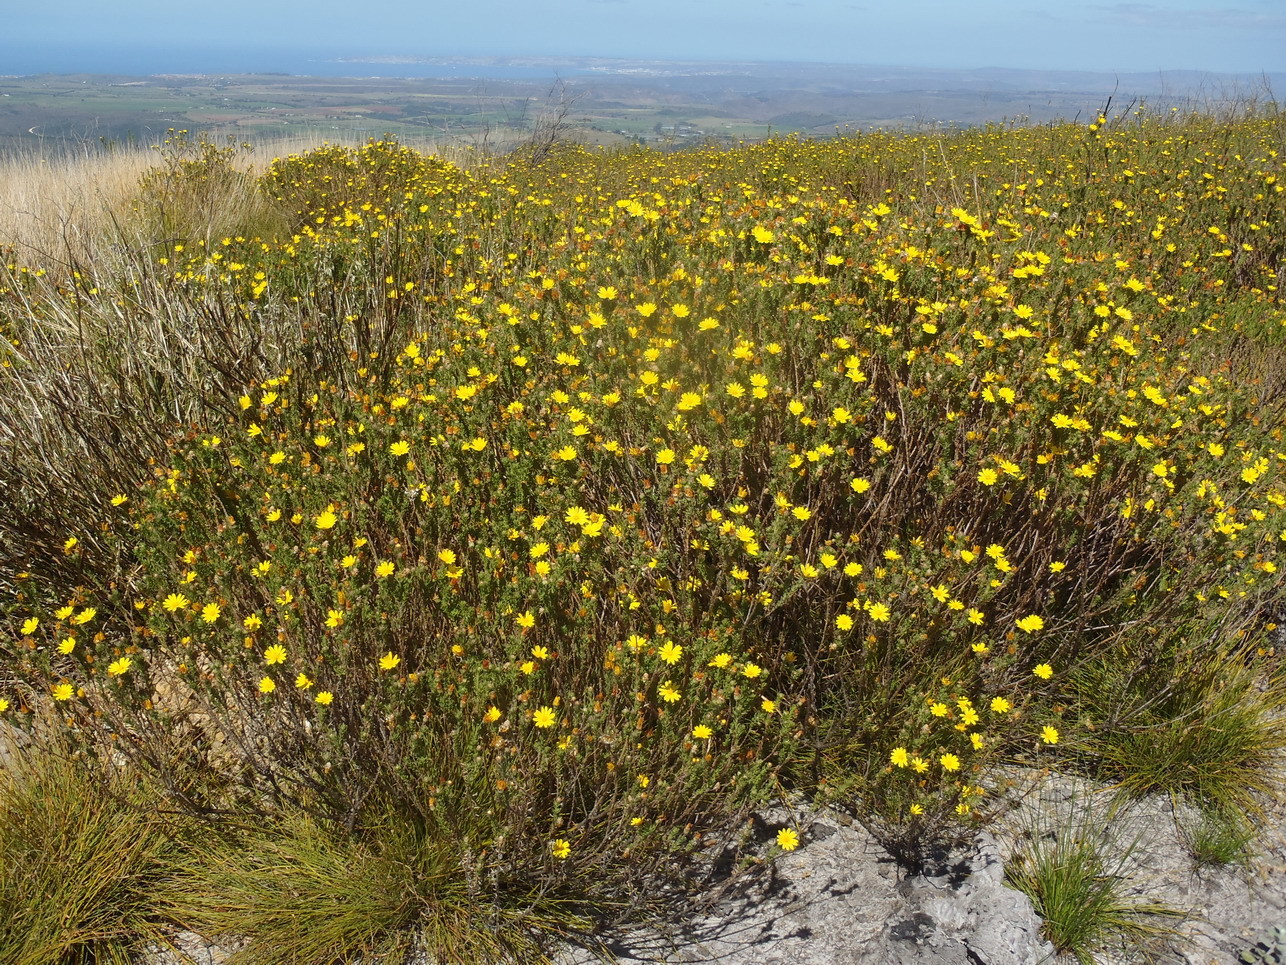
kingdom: Plantae
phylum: Tracheophyta
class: Magnoliopsida
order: Asterales
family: Asteraceae
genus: Ursinia
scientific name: Ursinia trifida
